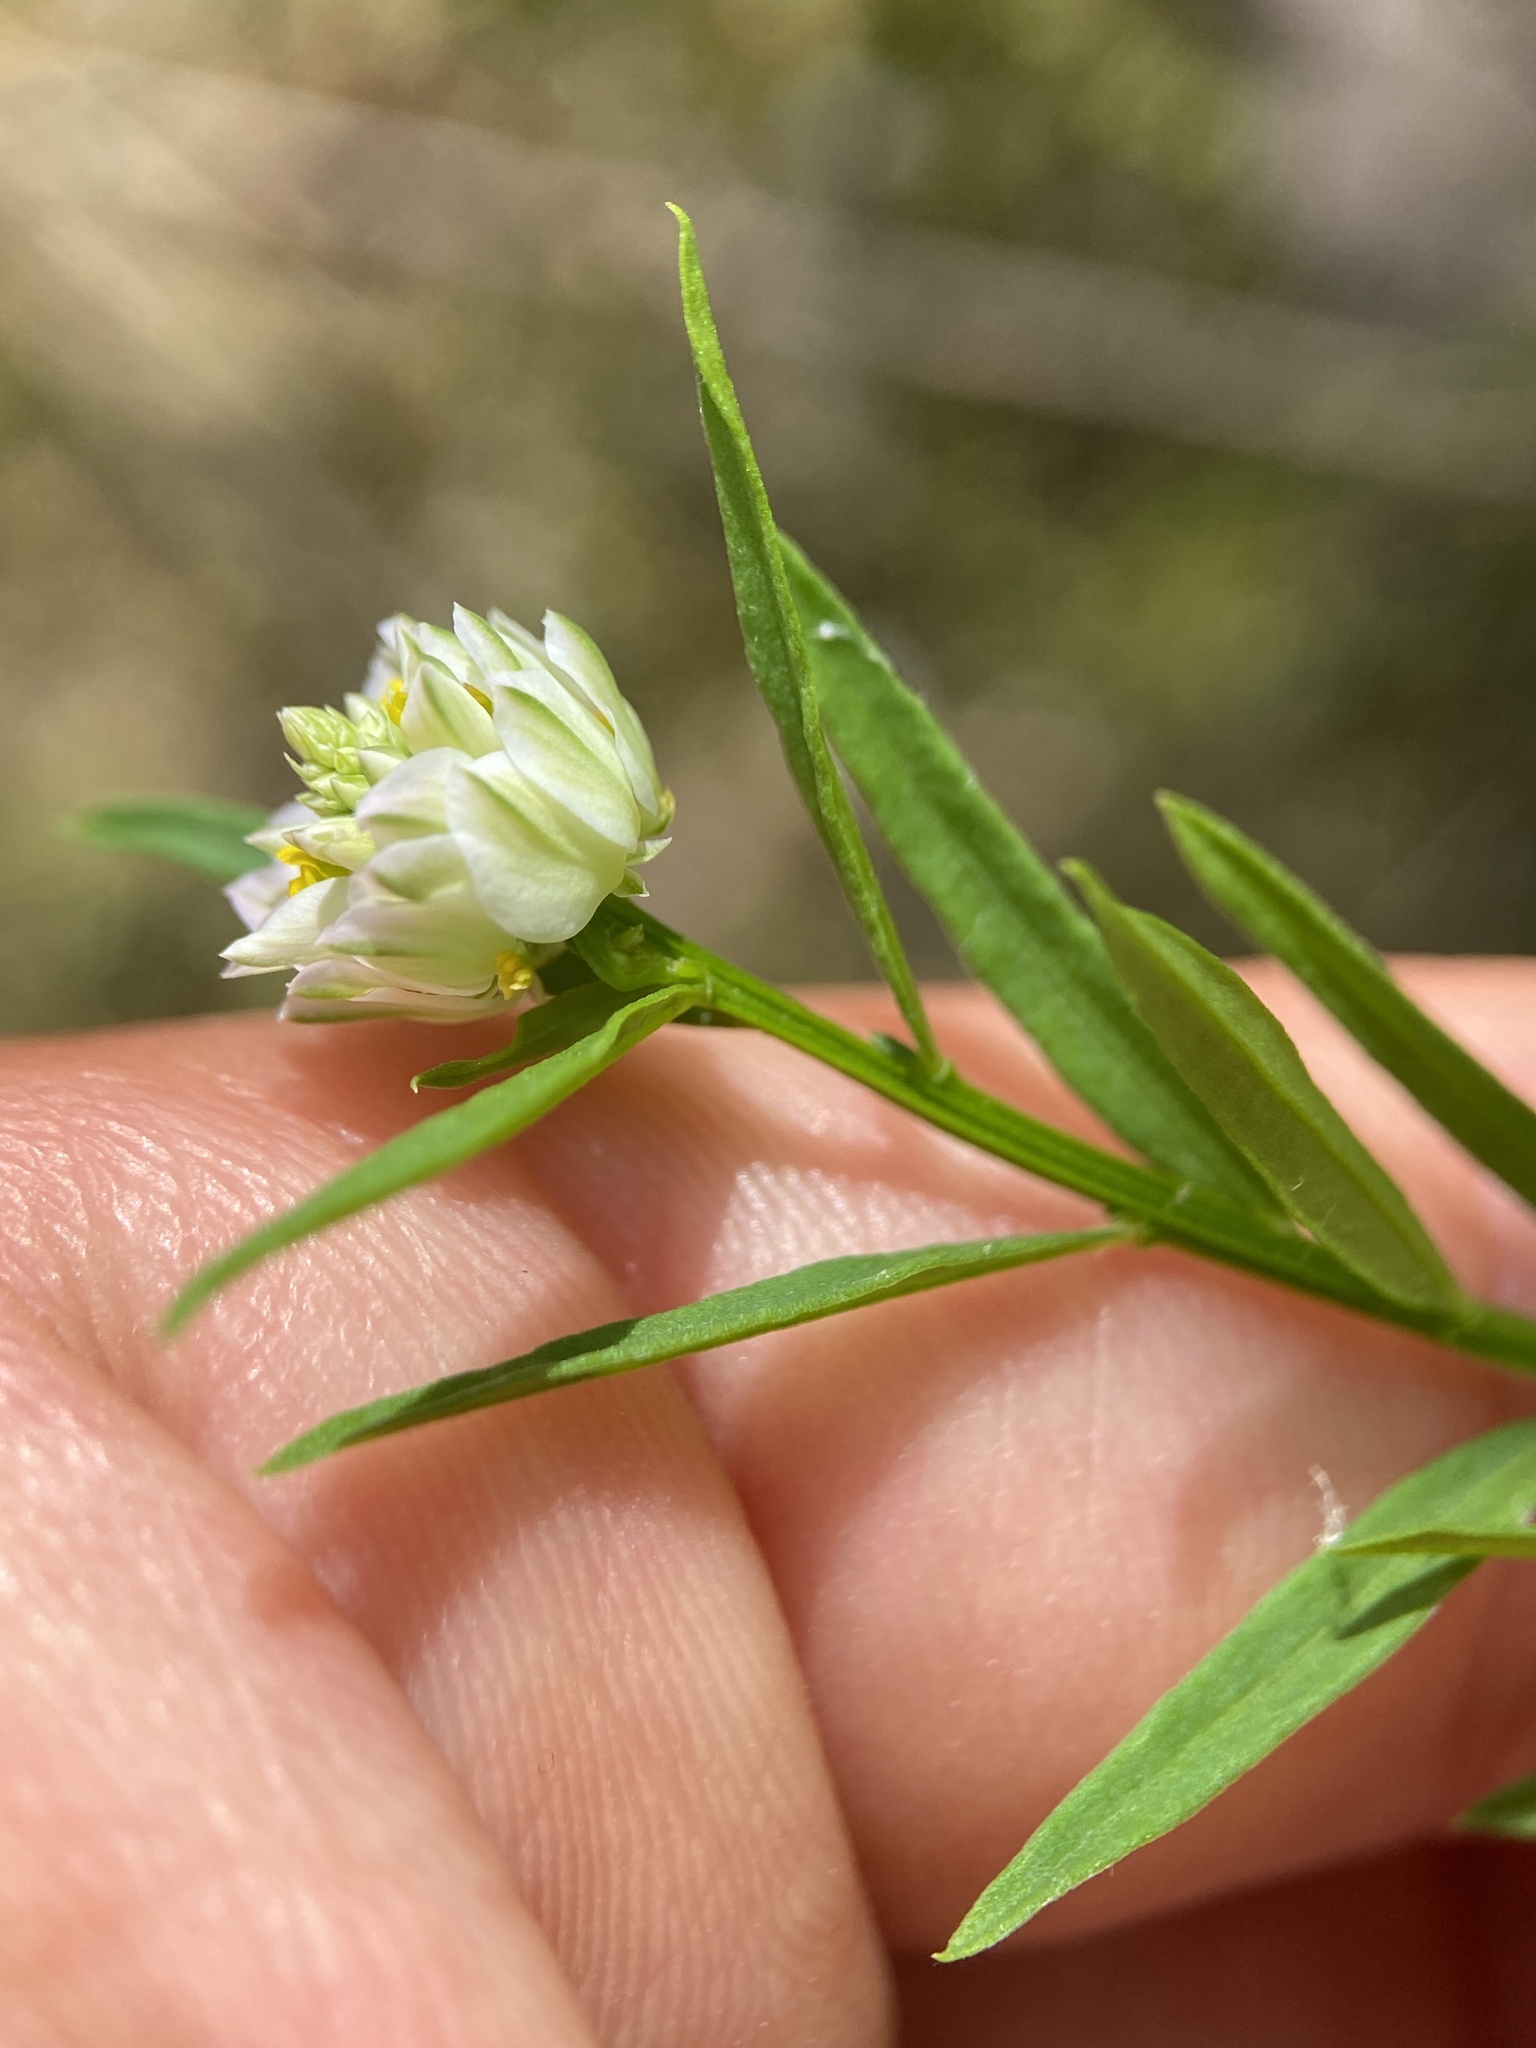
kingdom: Plantae
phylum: Tracheophyta
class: Magnoliopsida
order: Fabales
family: Polygalaceae
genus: Polygala
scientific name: Polygala sanguinea
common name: Blood milkwort
